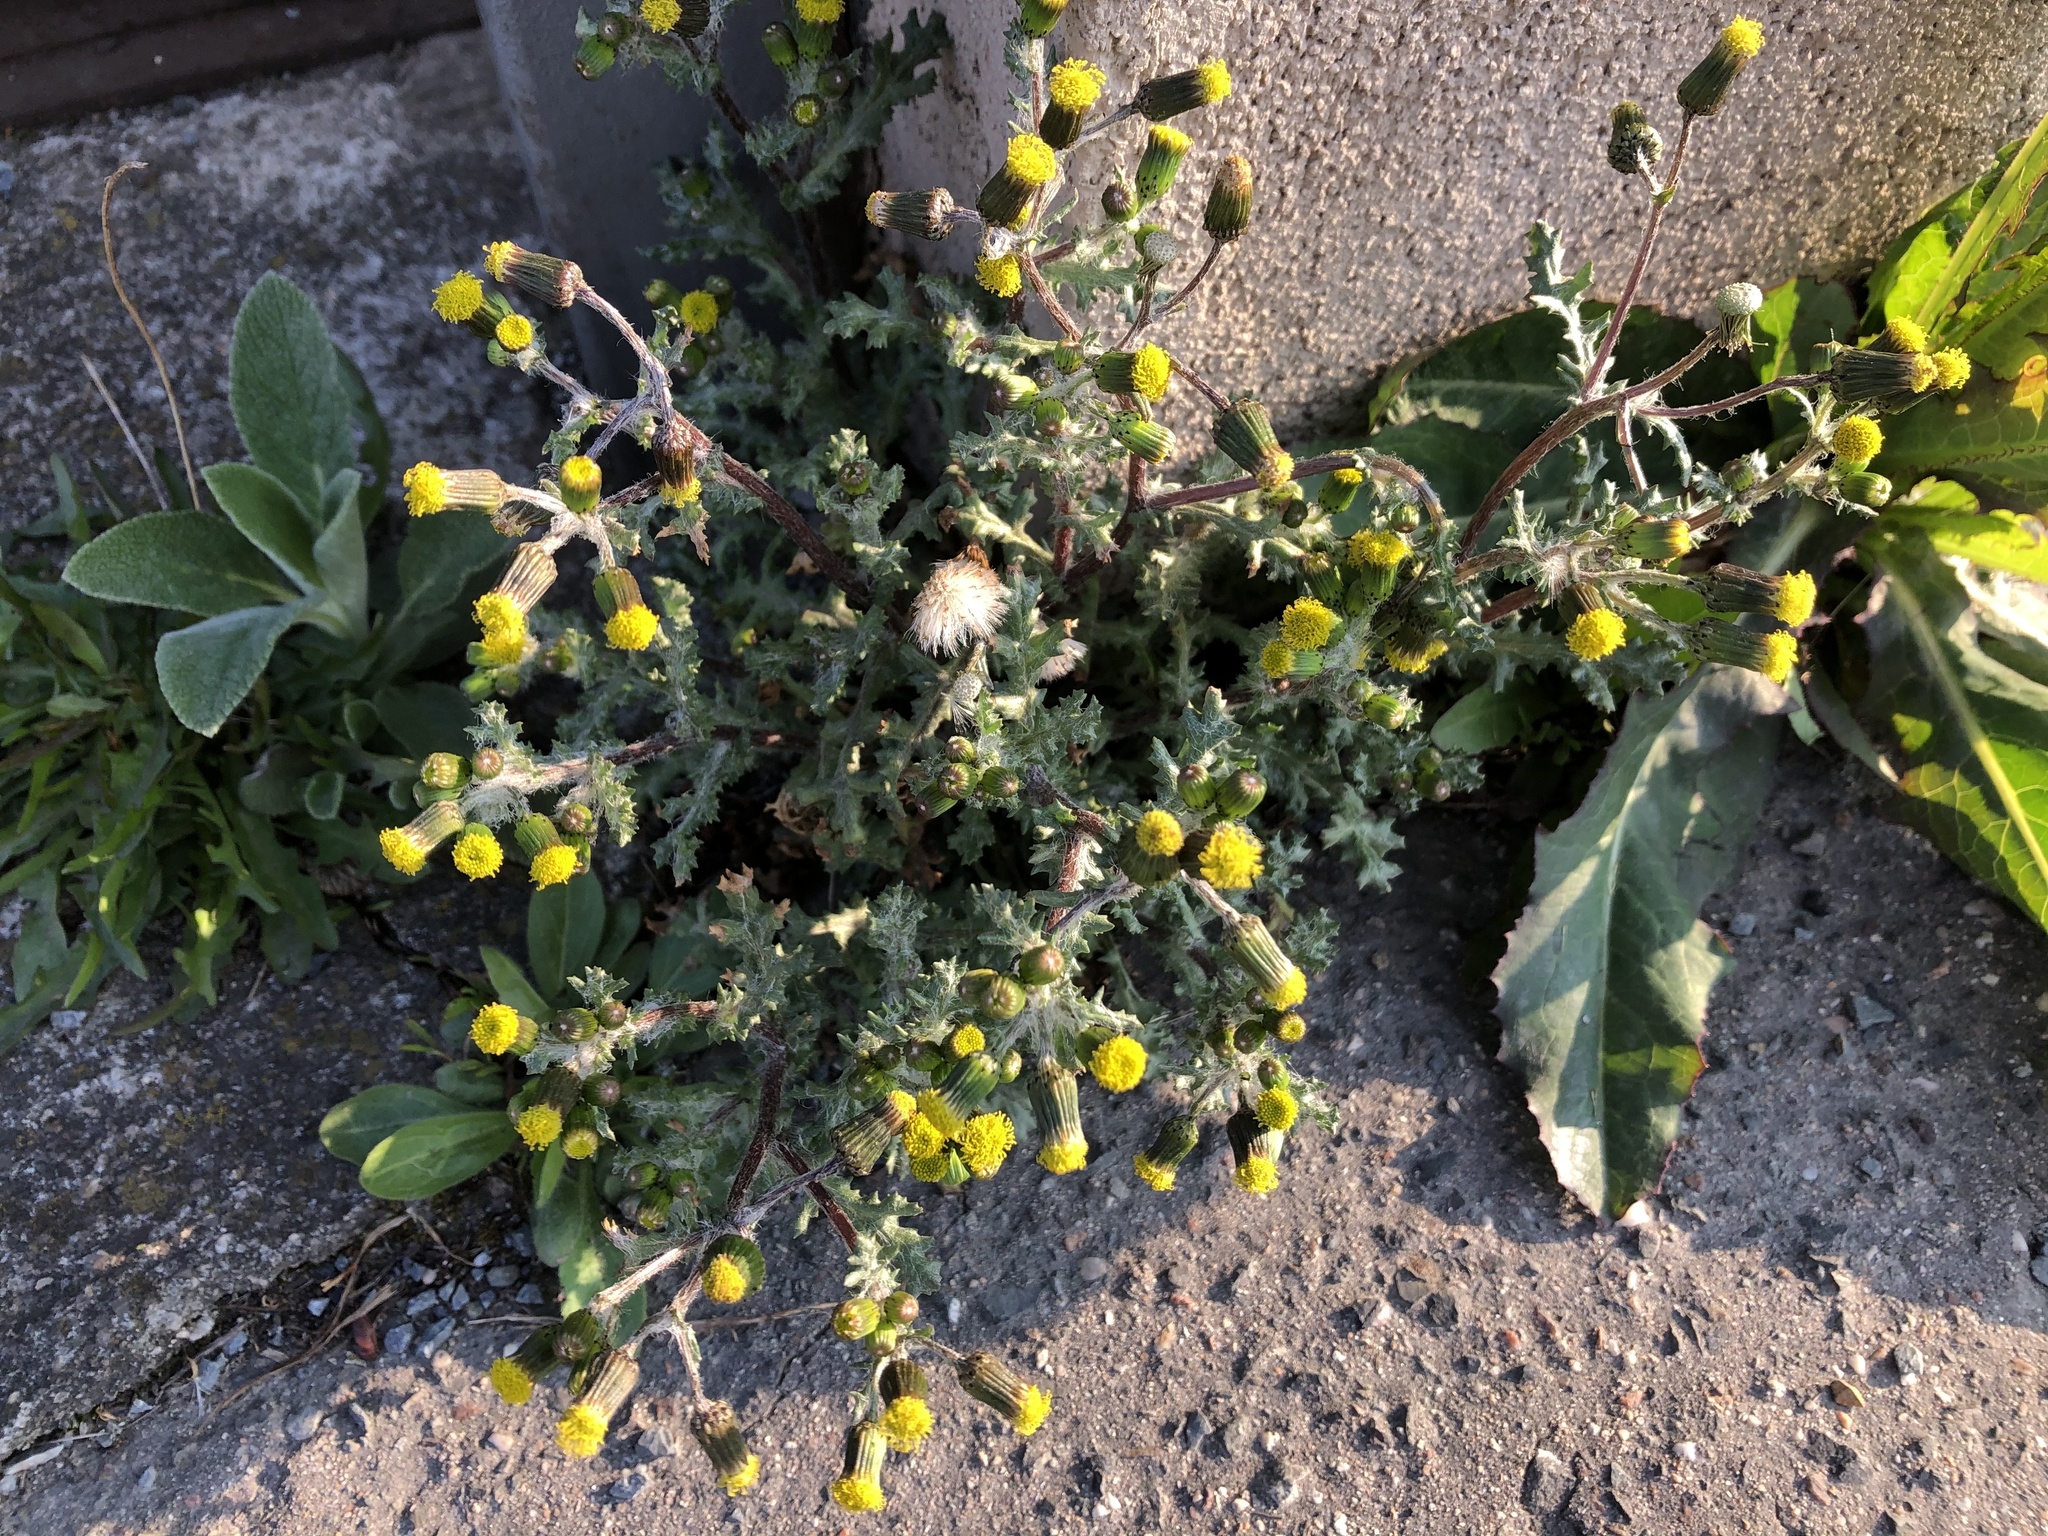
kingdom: Plantae
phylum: Tracheophyta
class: Magnoliopsida
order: Asterales
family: Asteraceae
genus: Senecio
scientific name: Senecio vulgaris
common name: Old-man-in-the-spring
